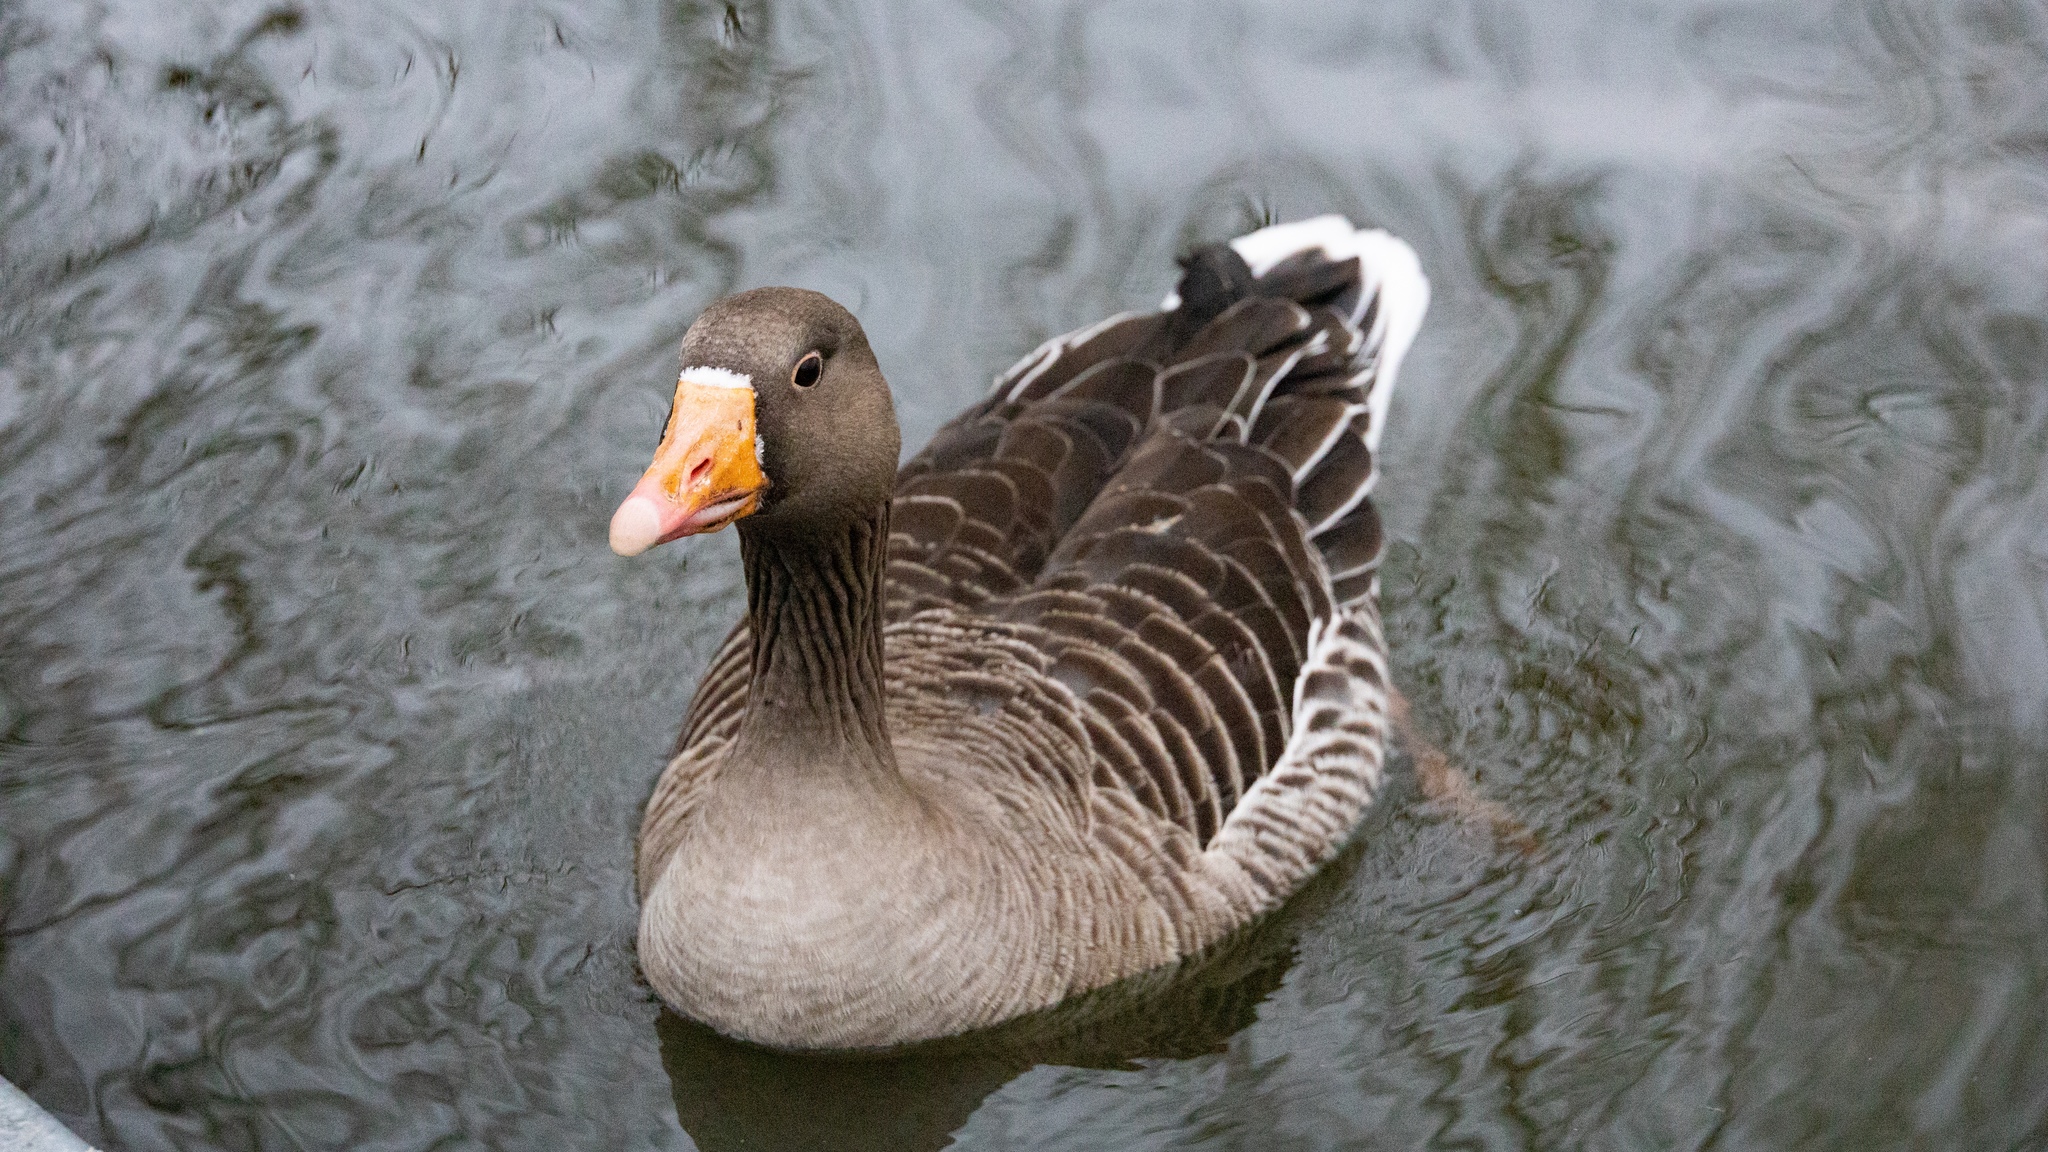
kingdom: Animalia
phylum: Chordata
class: Aves
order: Anseriformes
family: Anatidae
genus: Anser
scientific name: Anser anser
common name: Greylag goose
